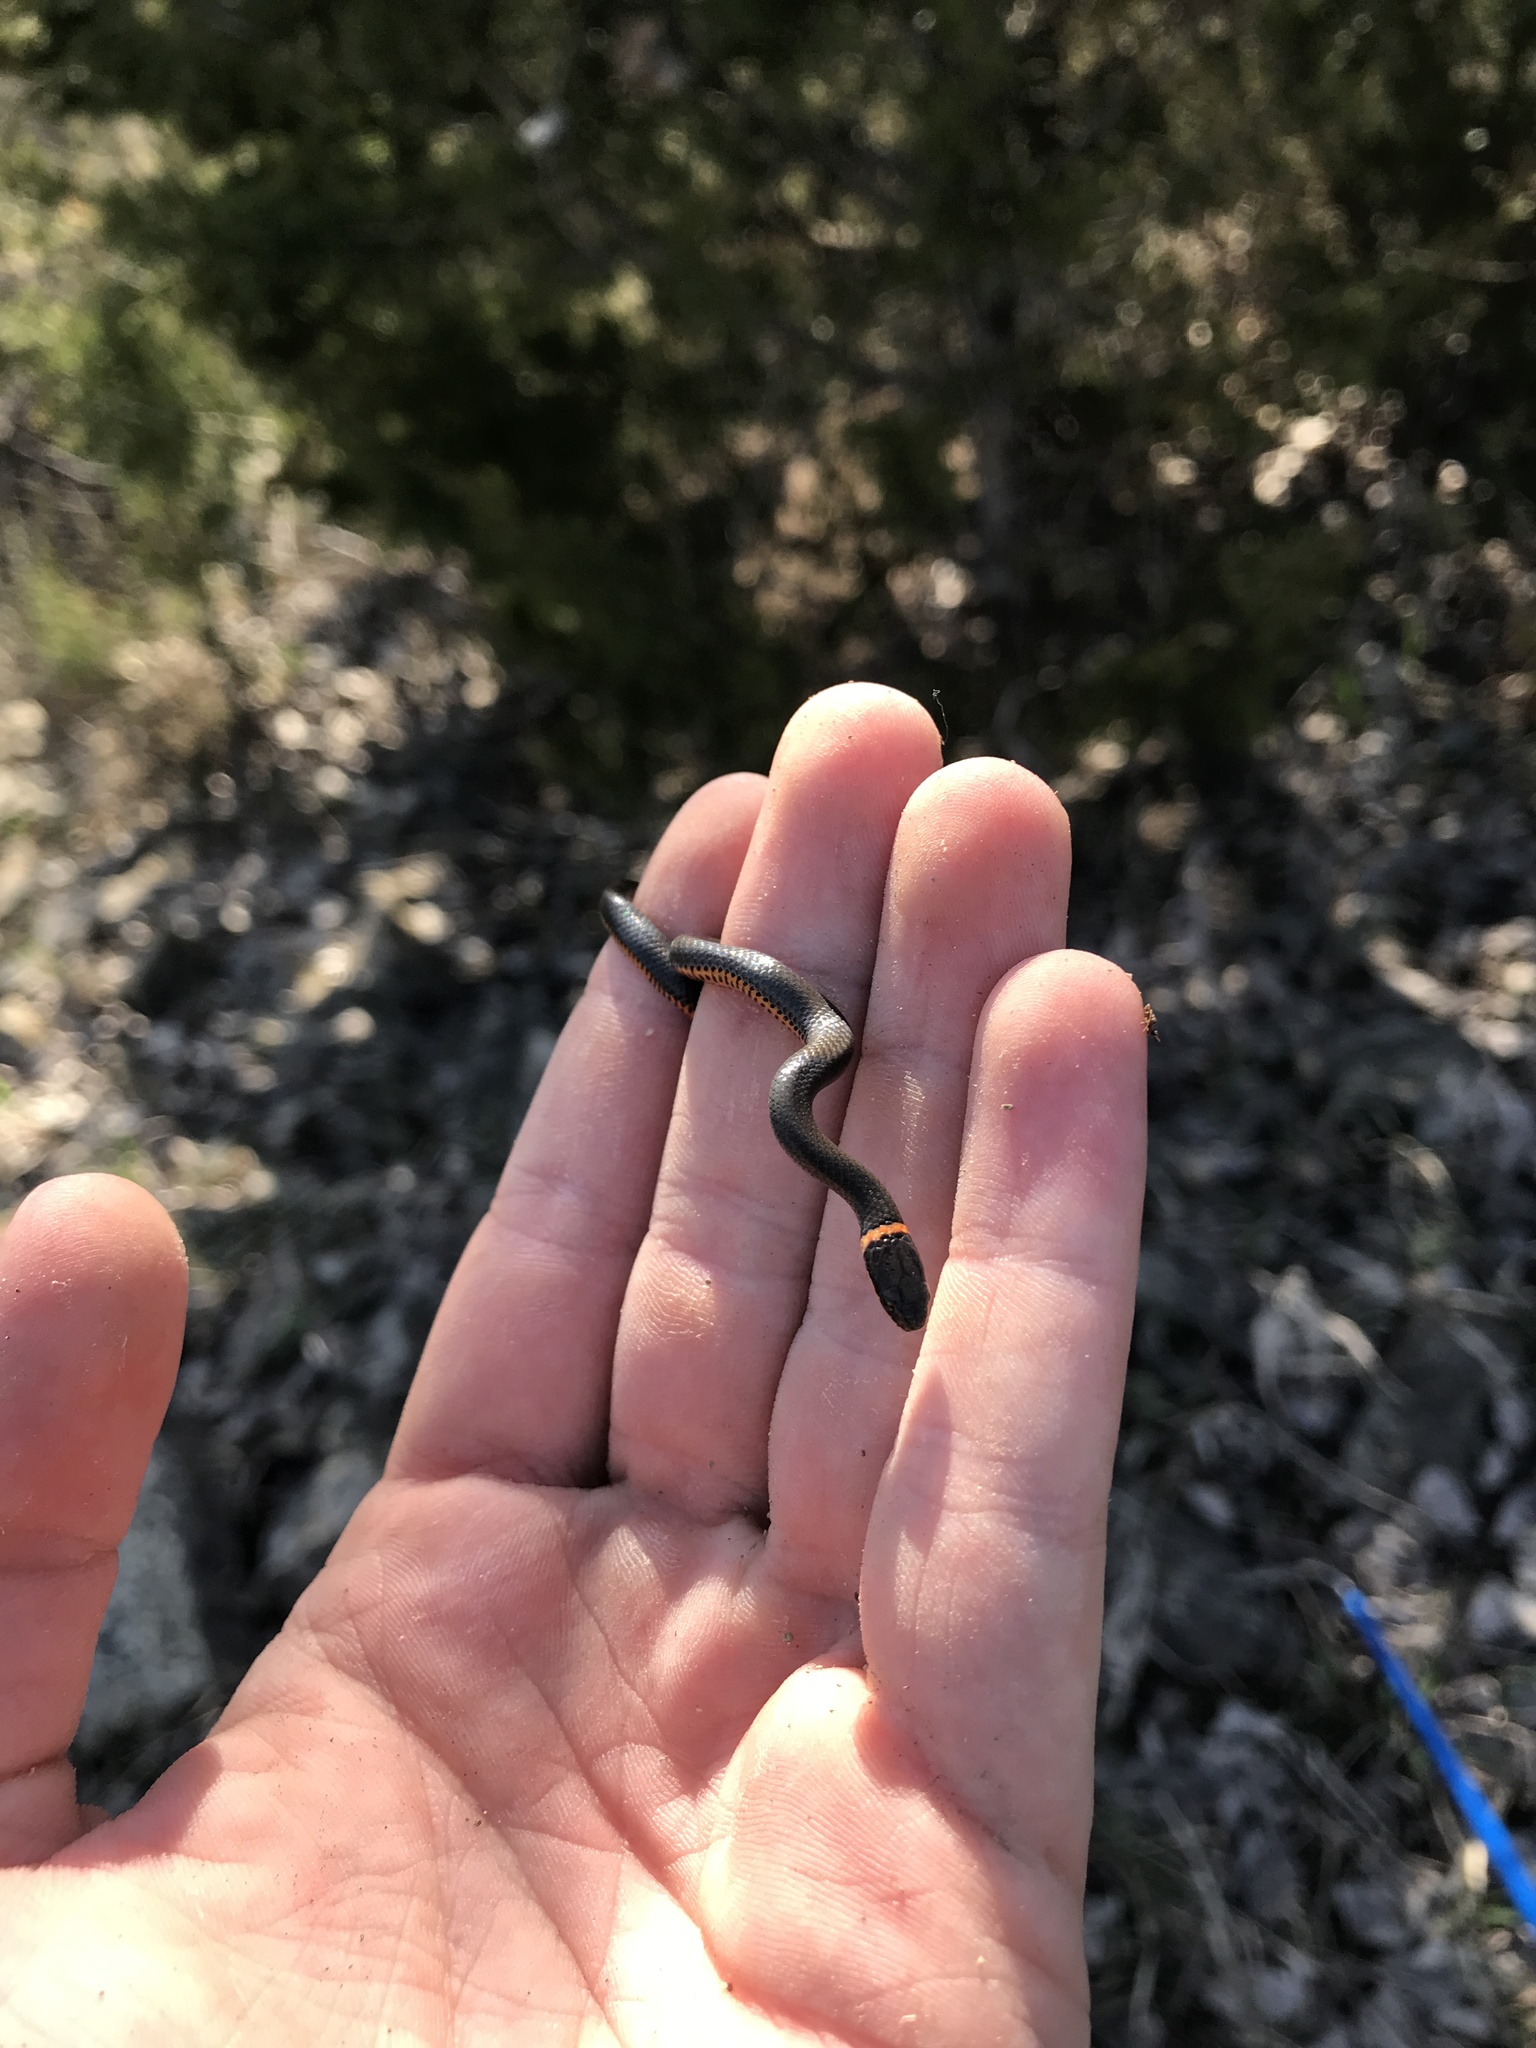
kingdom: Animalia
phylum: Chordata
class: Squamata
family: Colubridae
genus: Diadophis
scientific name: Diadophis punctatus
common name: Ringneck snake
